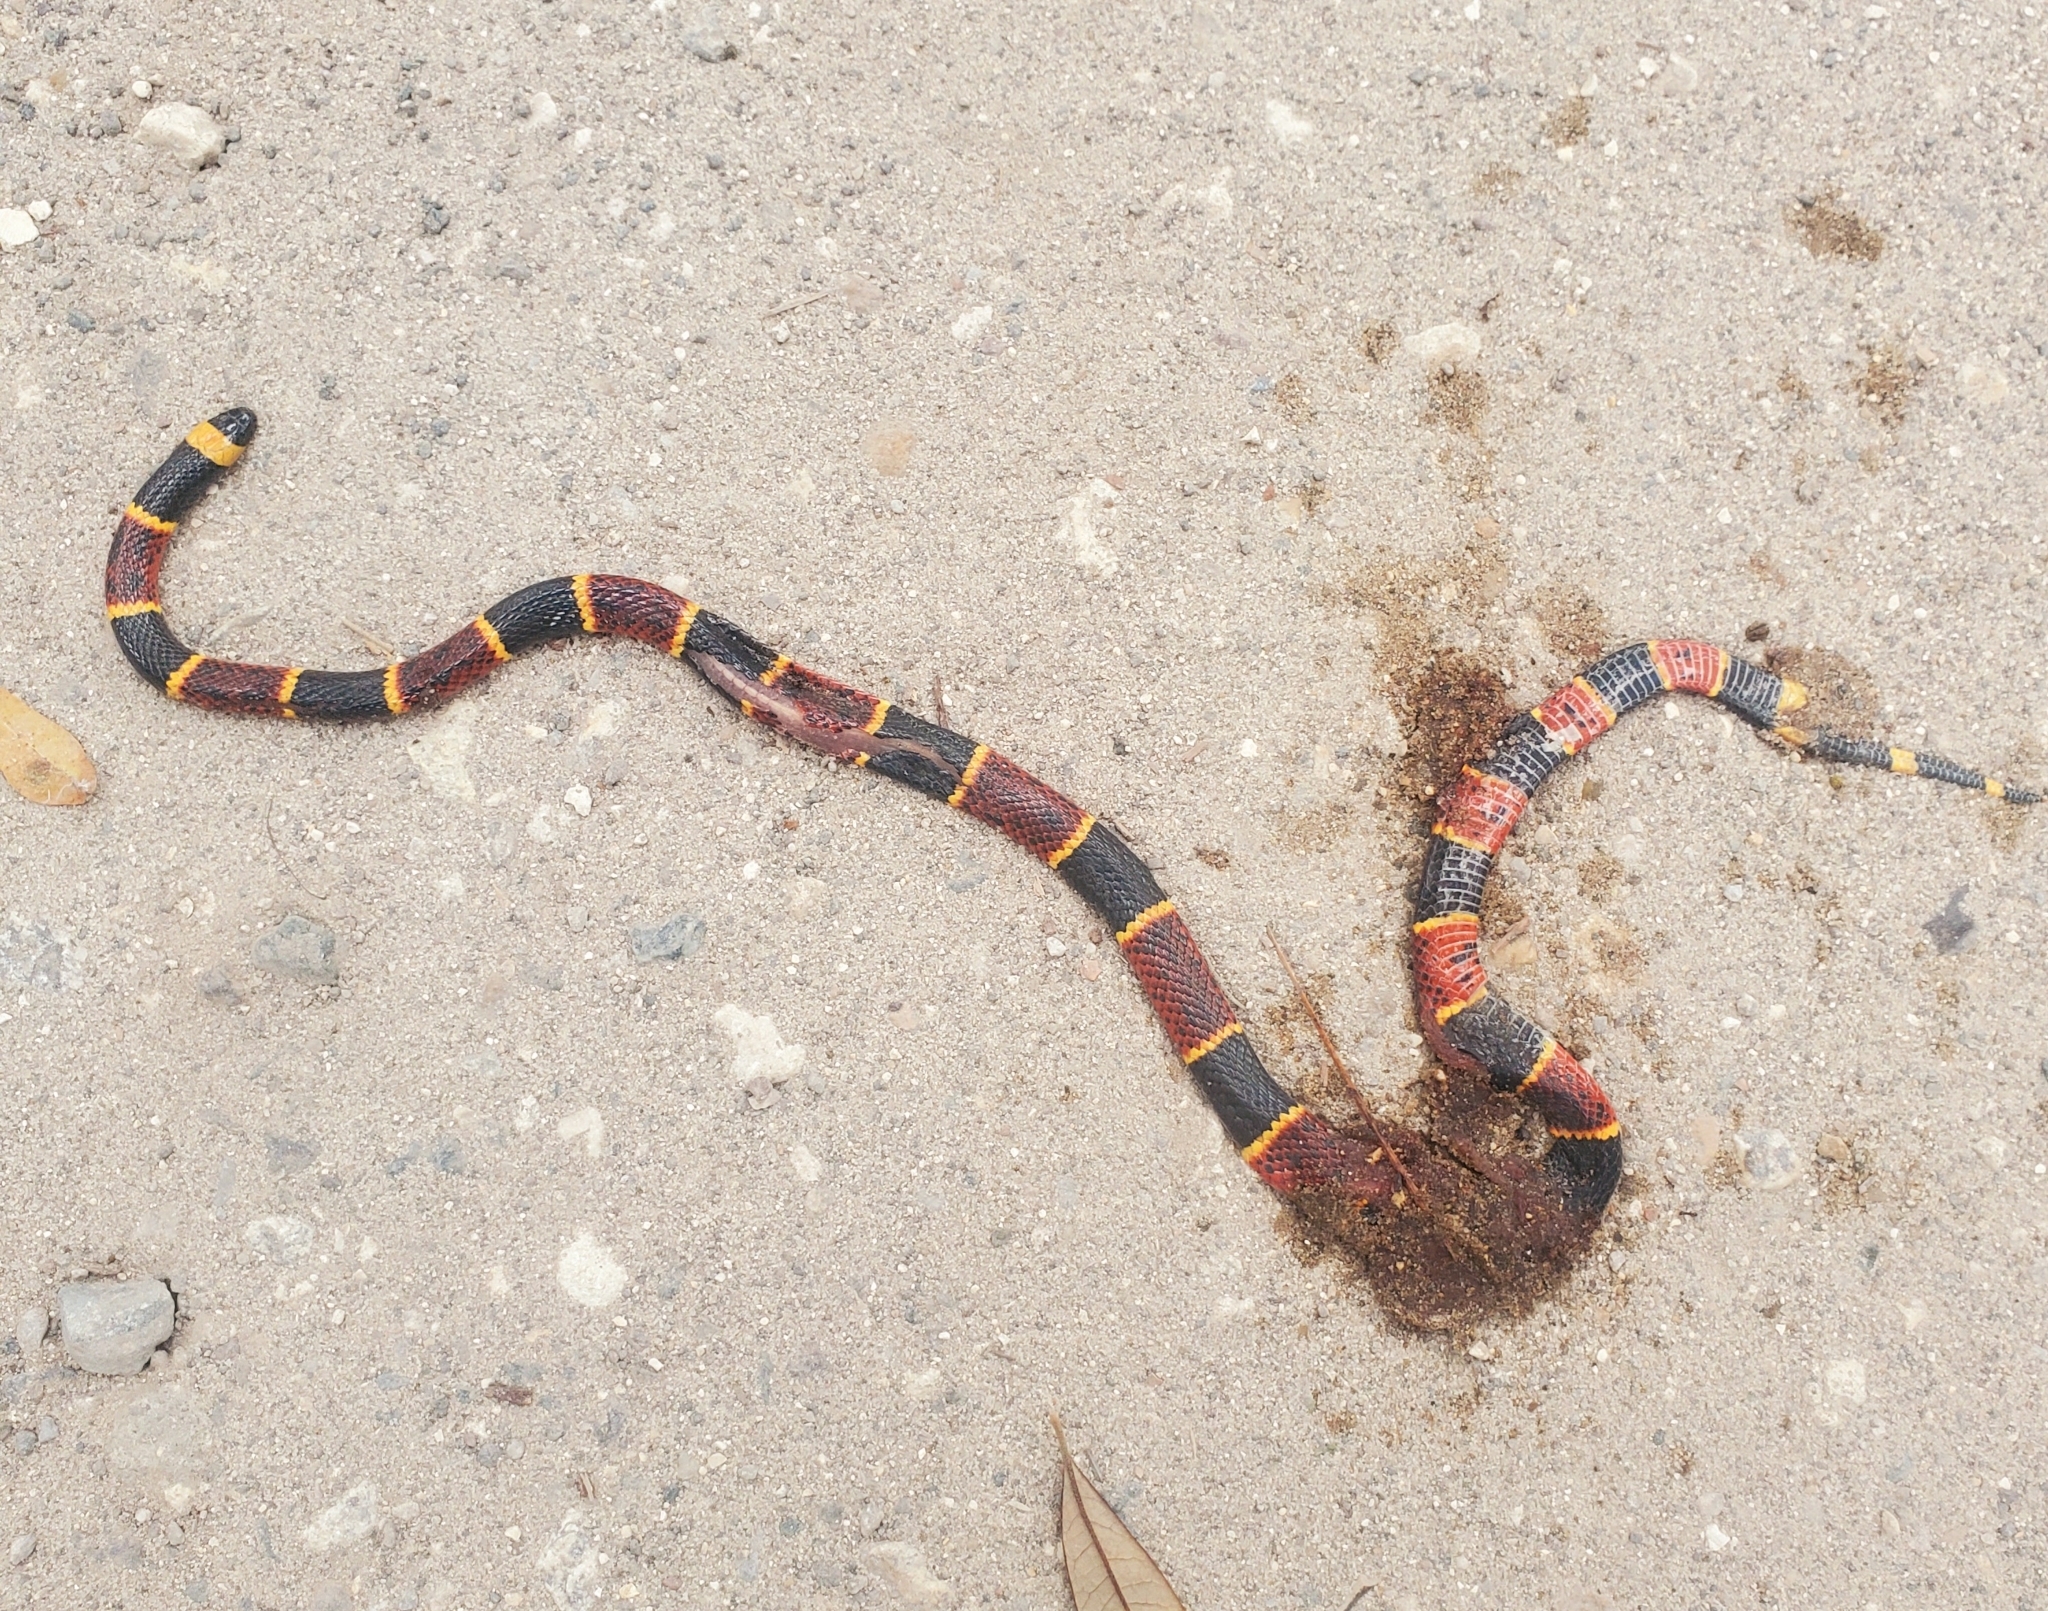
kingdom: Animalia
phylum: Chordata
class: Squamata
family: Elapidae
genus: Micrurus
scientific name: Micrurus fulvius
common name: Eastern coral snake
